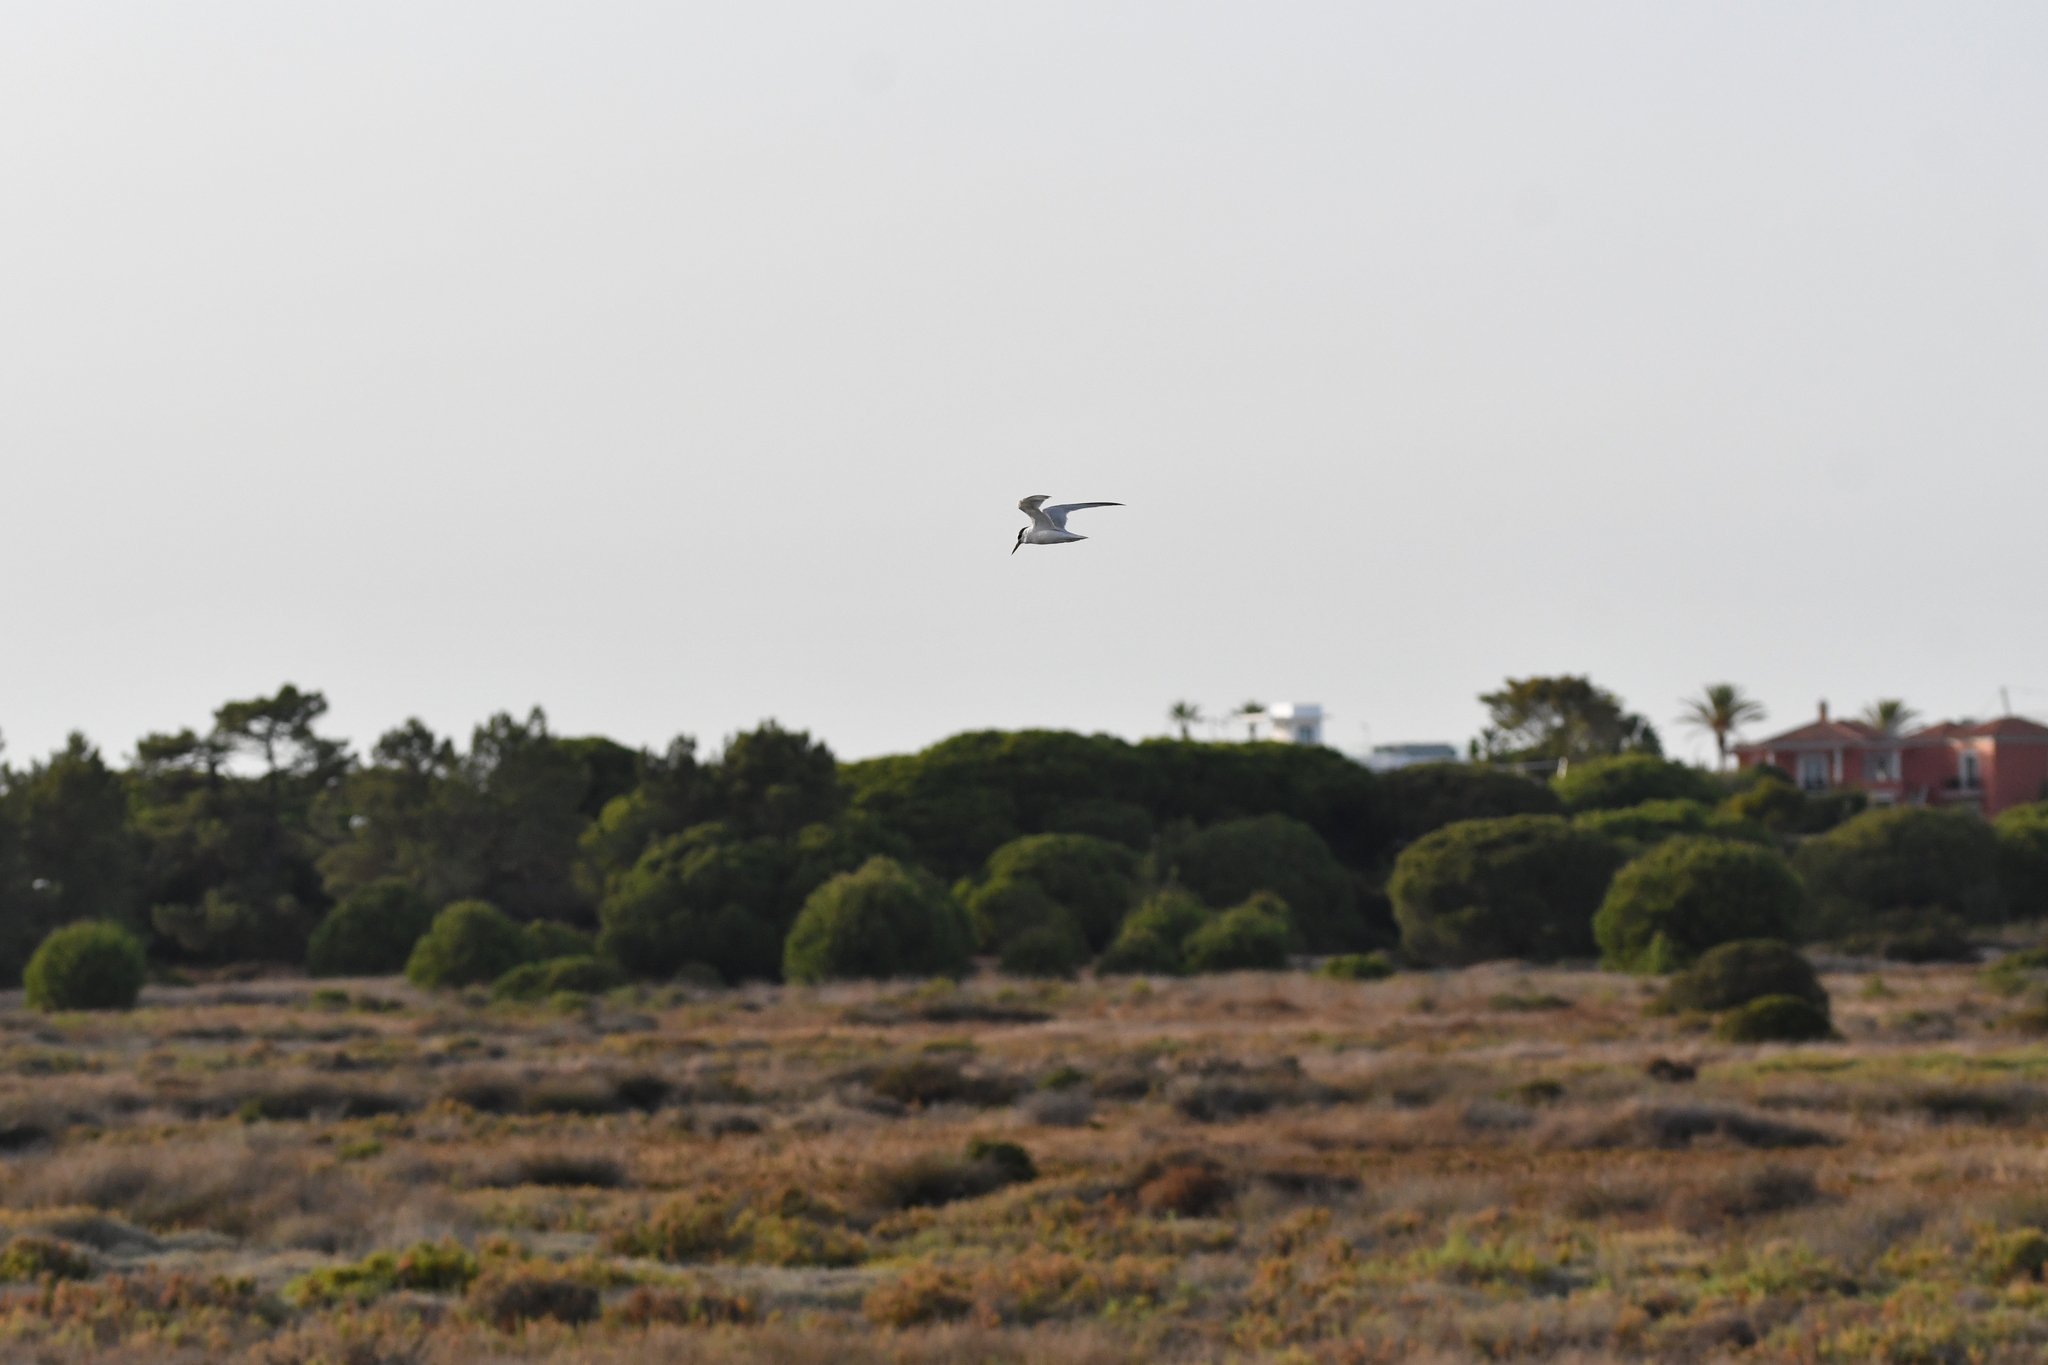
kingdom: Animalia
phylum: Chordata
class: Aves
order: Charadriiformes
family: Laridae
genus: Sternula
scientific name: Sternula albifrons
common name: Little tern
